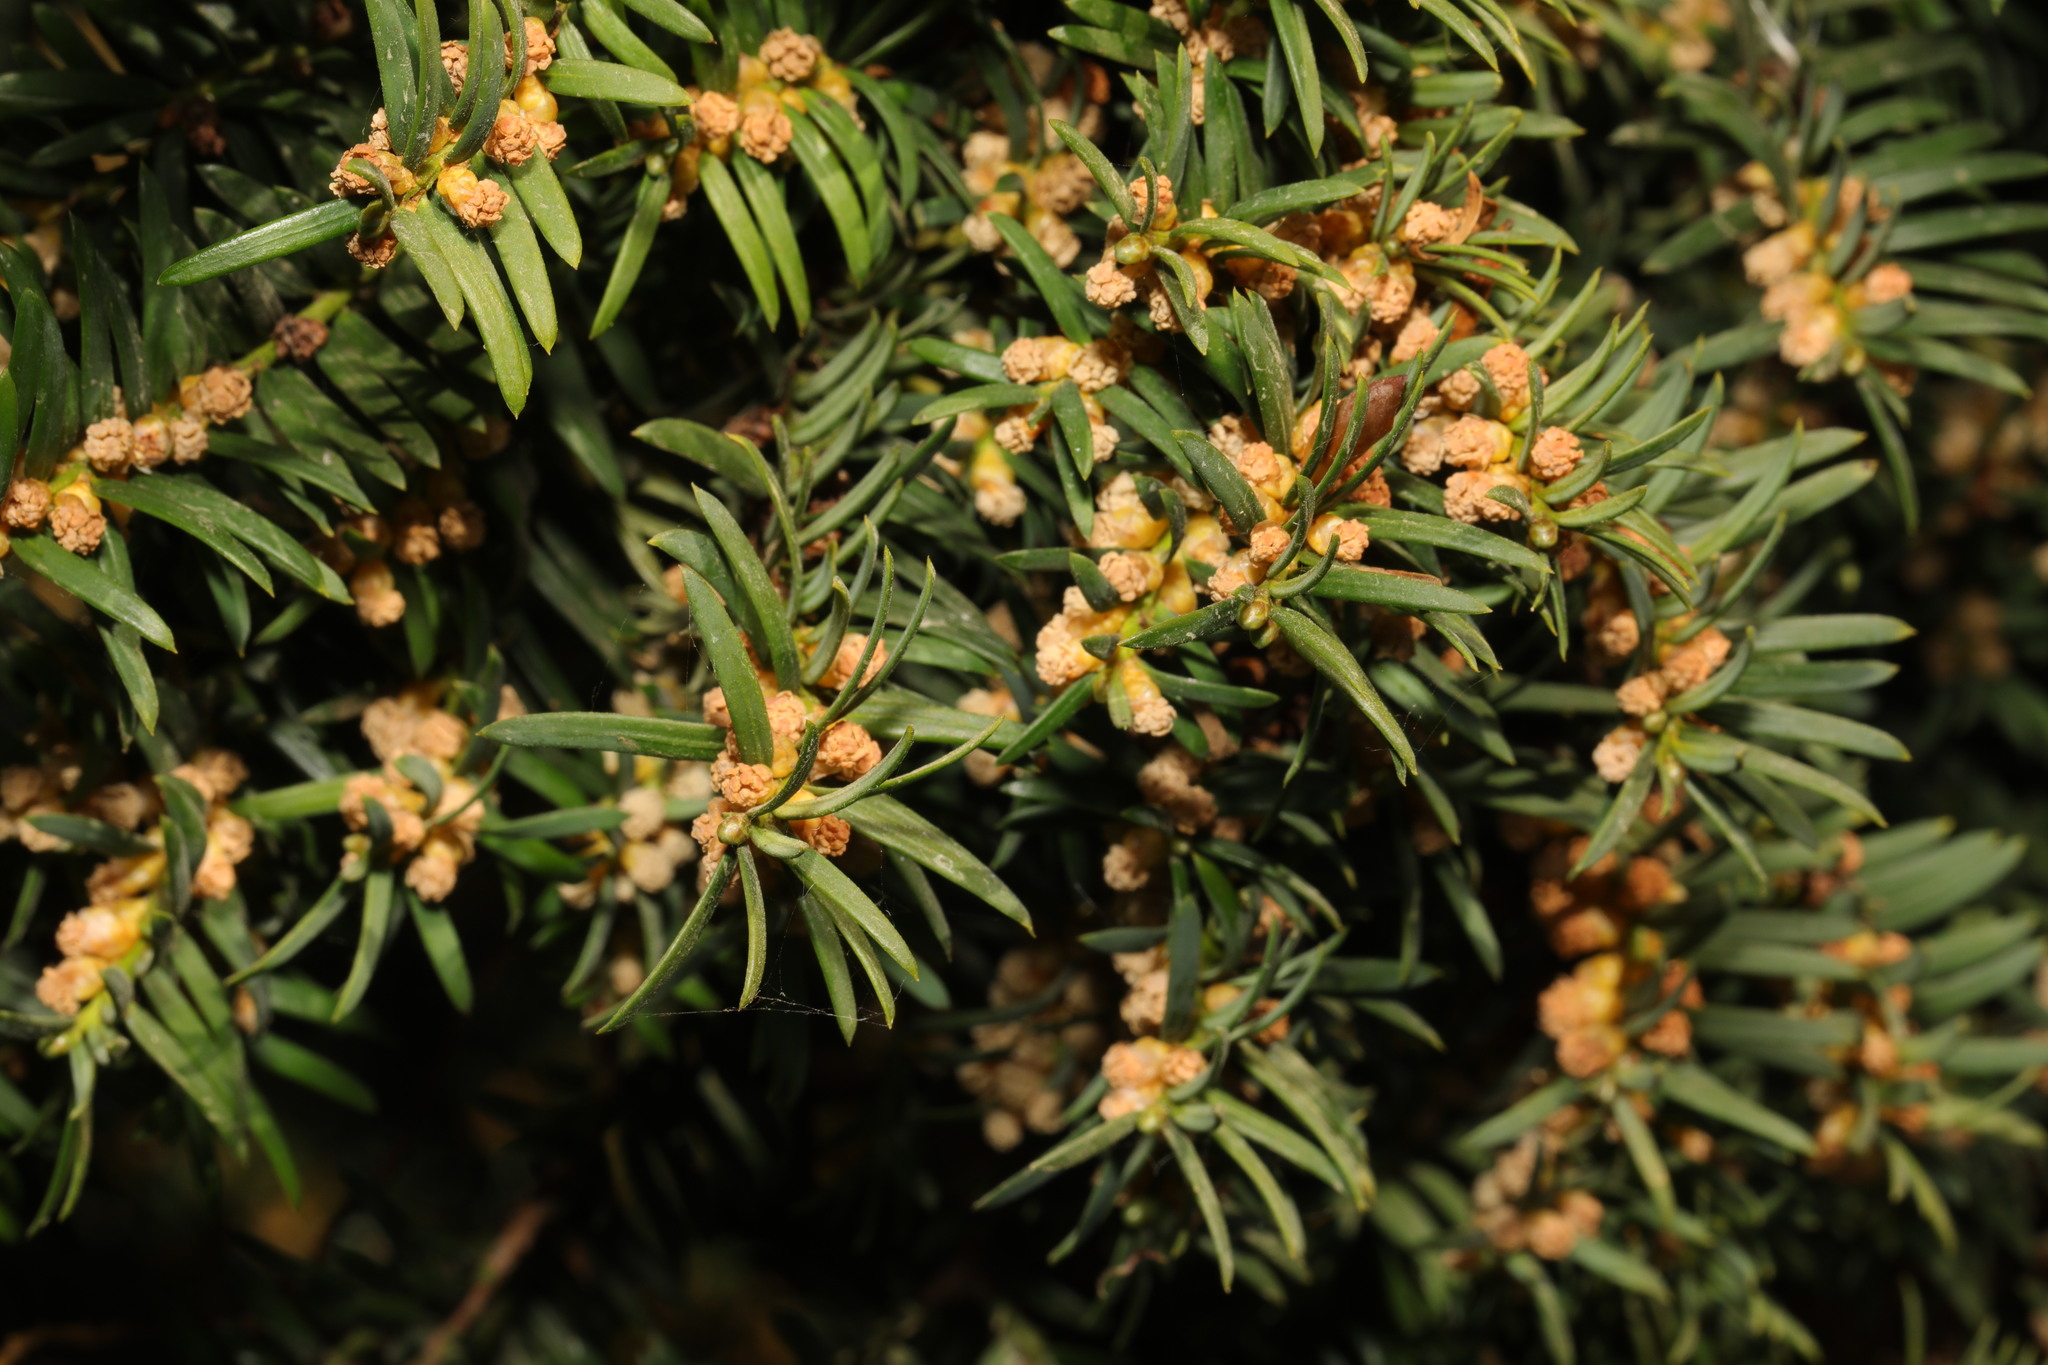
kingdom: Plantae
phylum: Tracheophyta
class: Pinopsida
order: Pinales
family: Taxaceae
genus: Taxus
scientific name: Taxus baccata
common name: Yew
